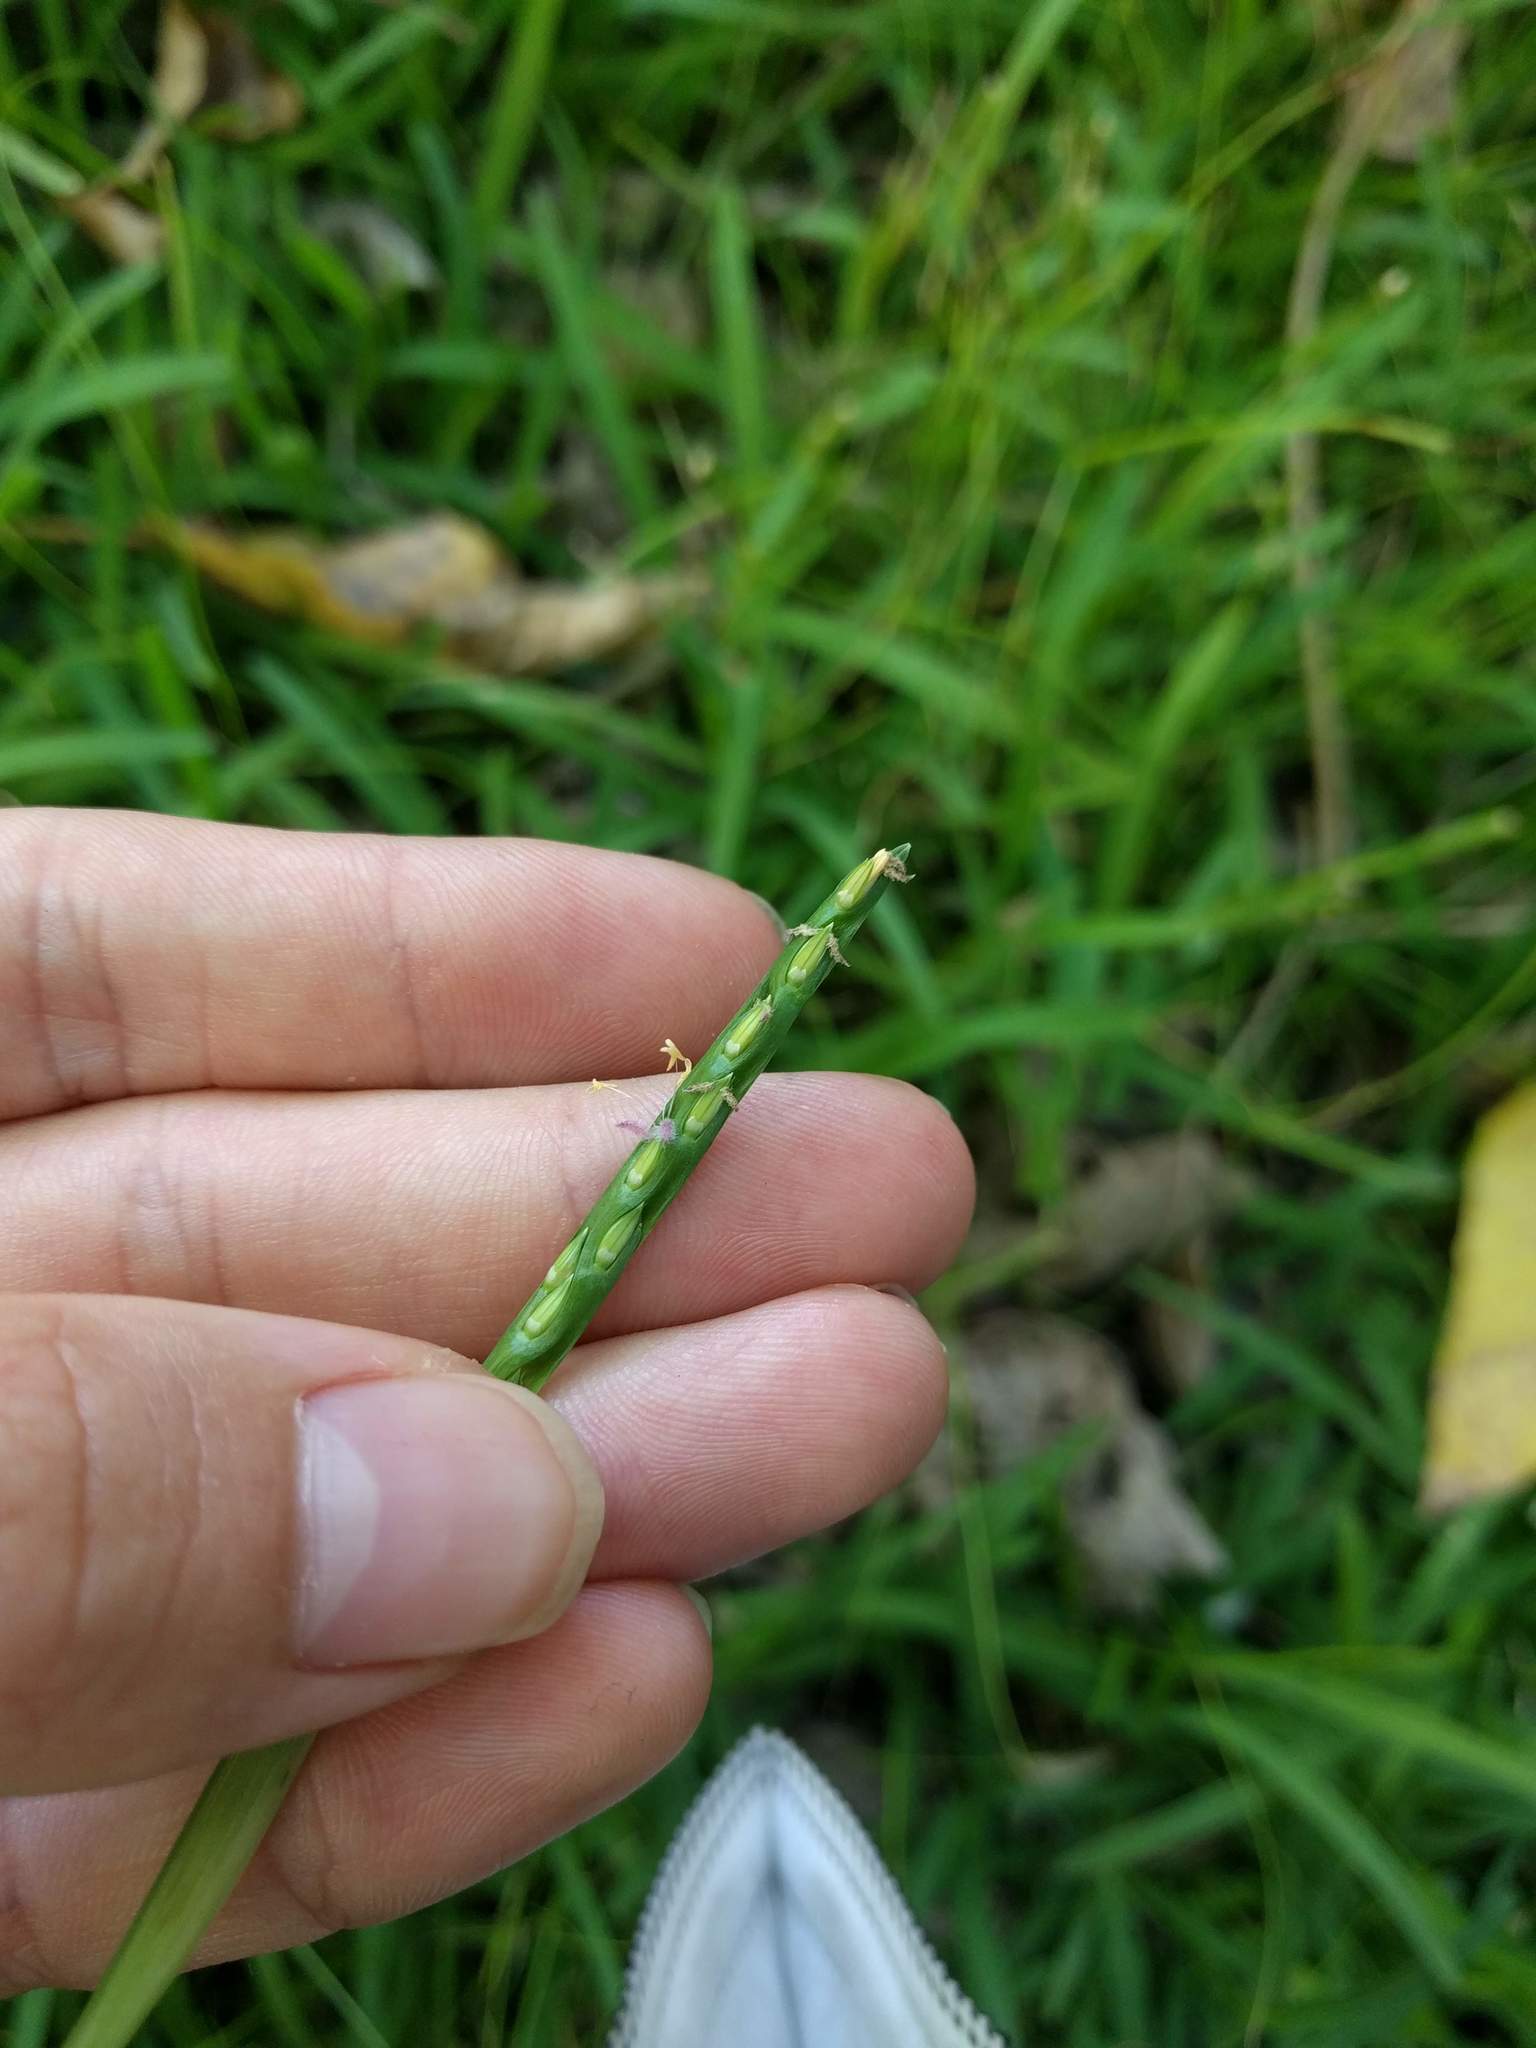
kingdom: Plantae
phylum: Tracheophyta
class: Liliopsida
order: Poales
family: Poaceae
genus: Stenotaphrum
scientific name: Stenotaphrum secundatum
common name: St. augustine grass
